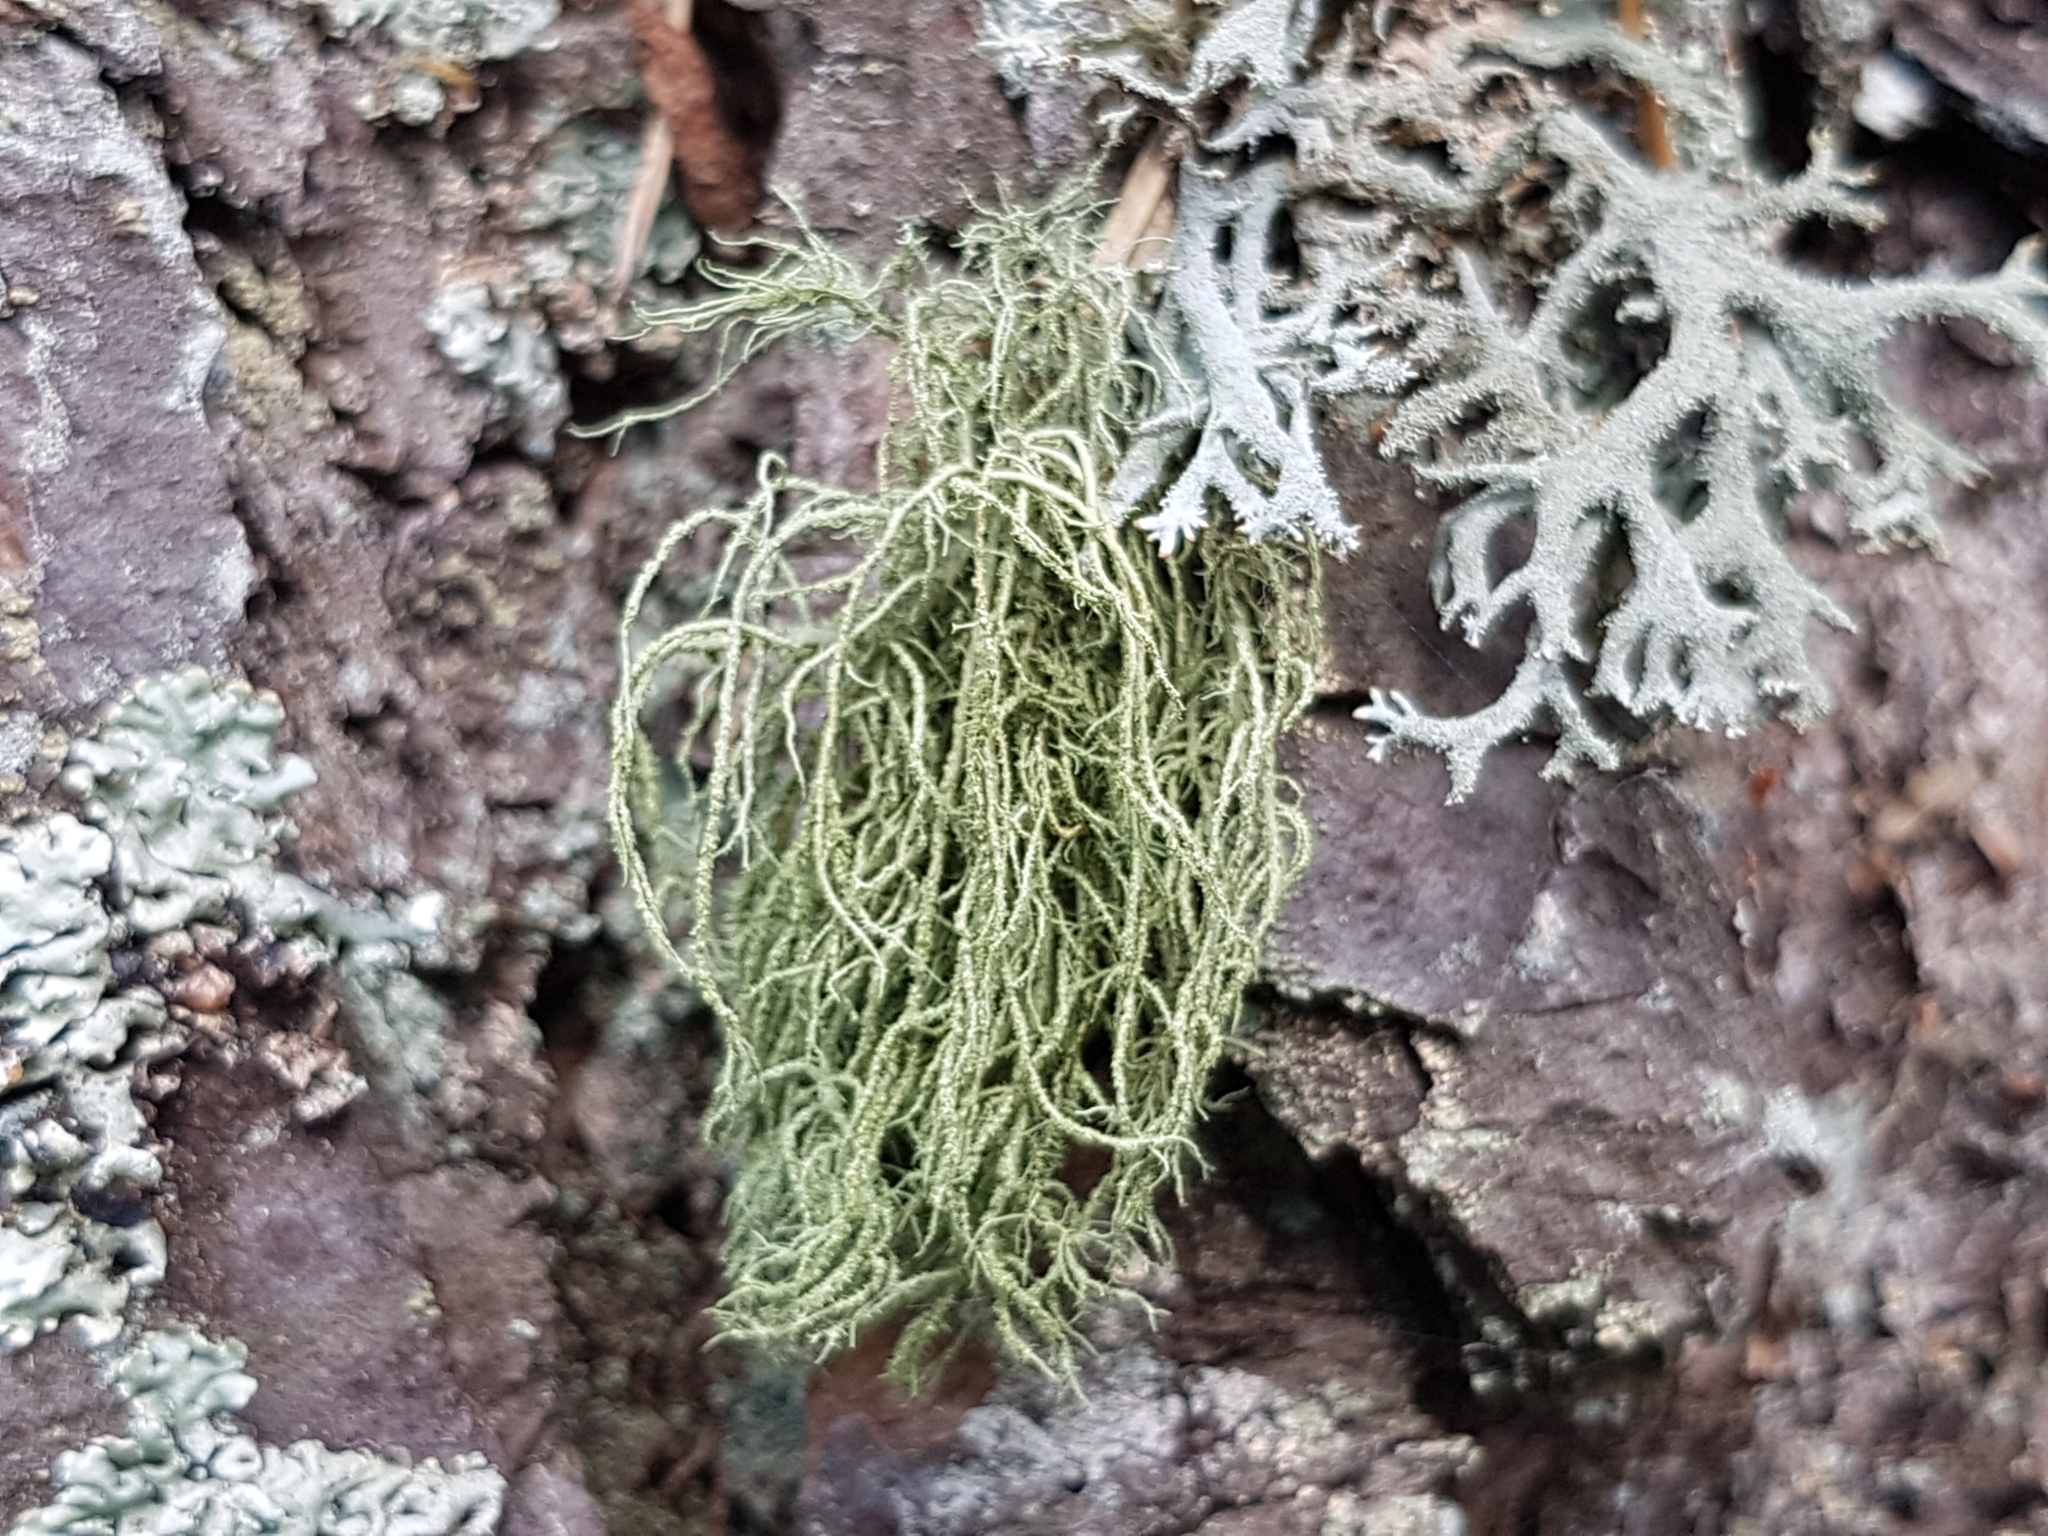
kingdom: Fungi
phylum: Ascomycota
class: Lecanoromycetes
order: Lecanorales
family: Parmeliaceae
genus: Usnea
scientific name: Usnea hirta
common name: Bristly beard lichen
